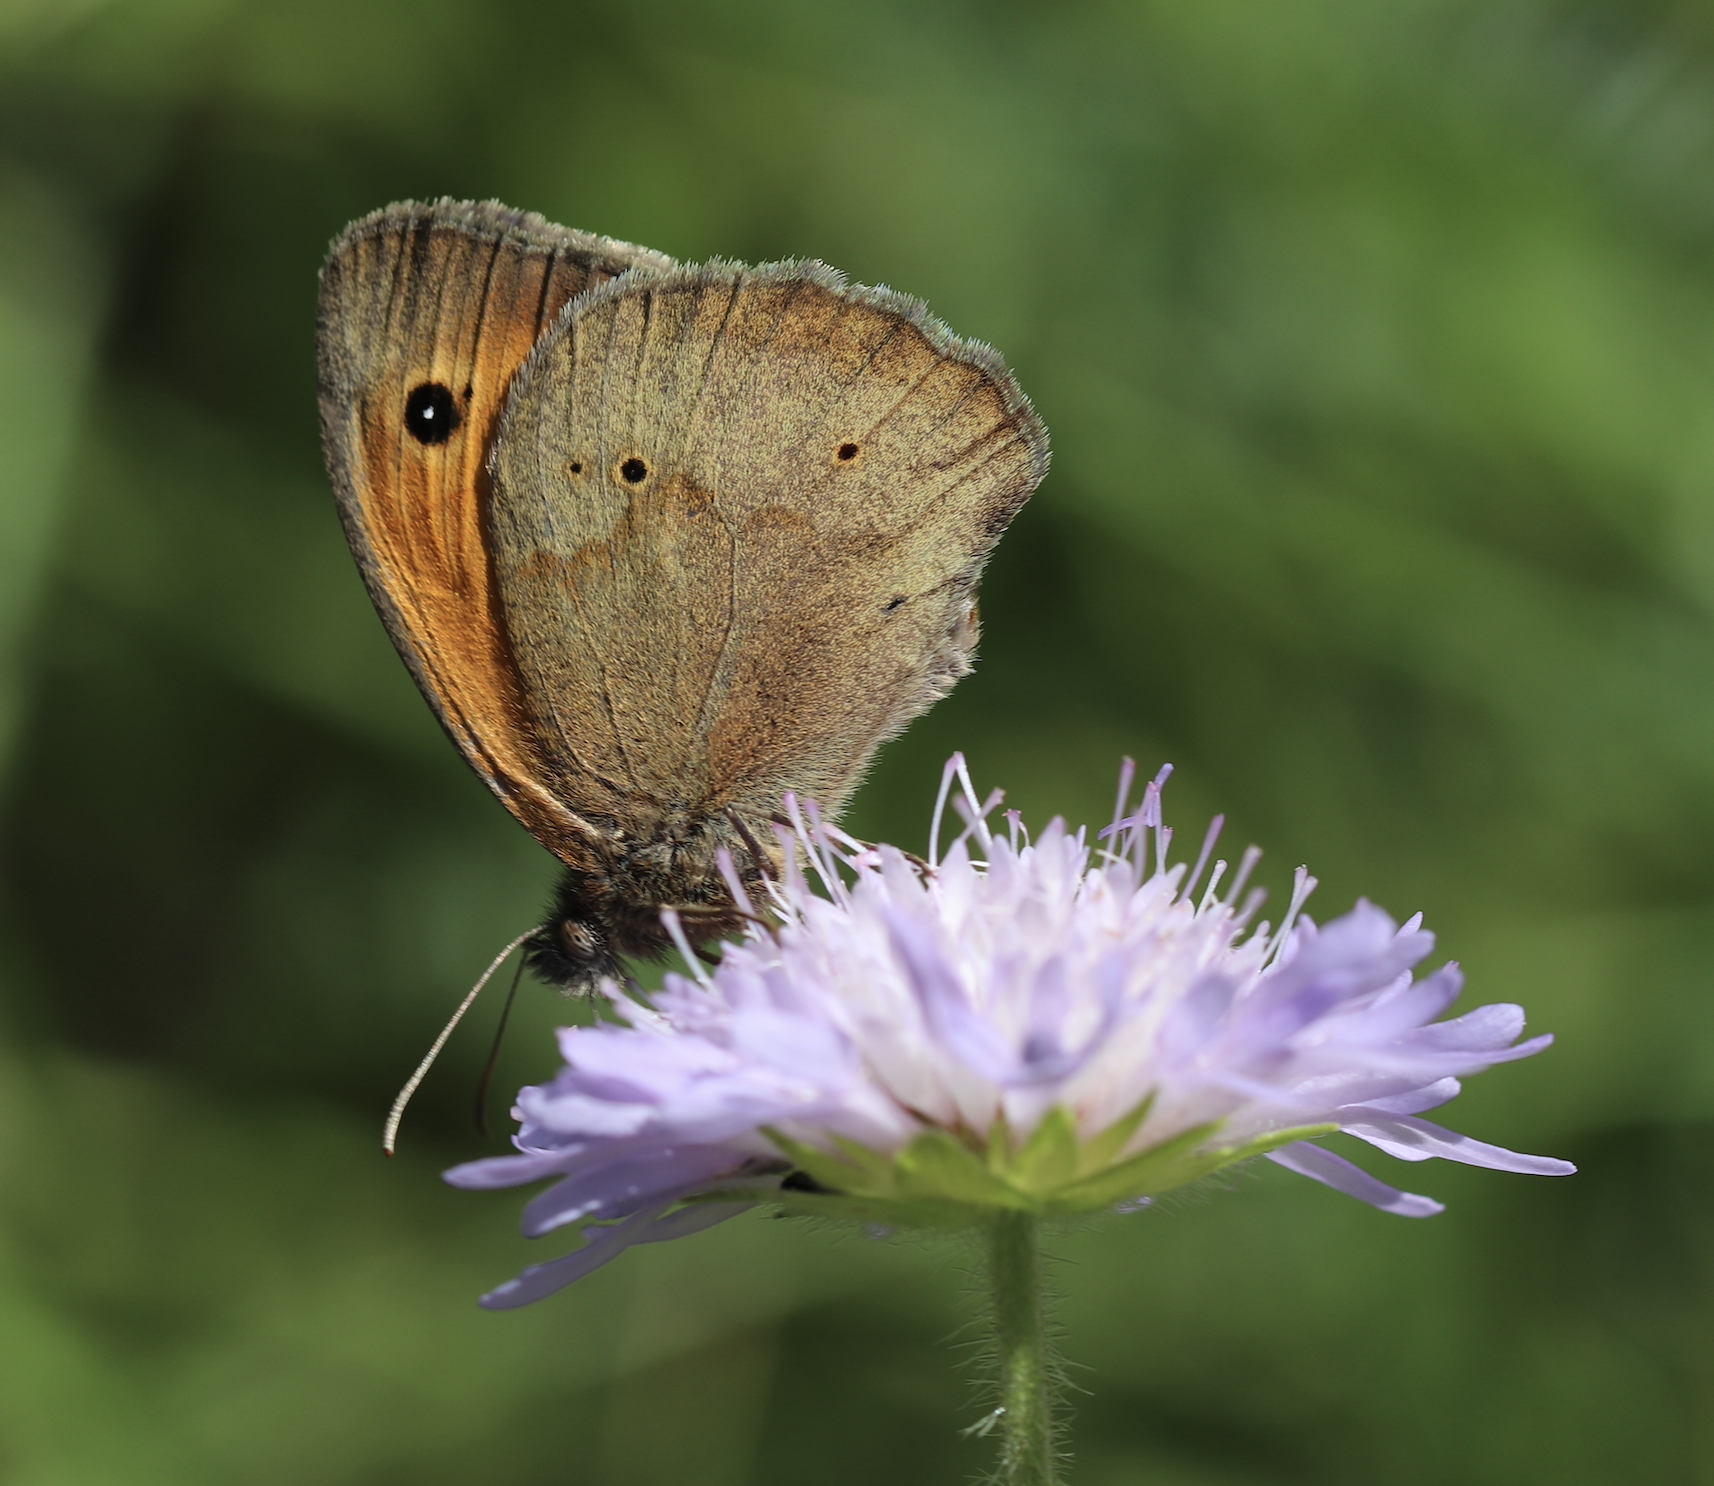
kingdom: Animalia
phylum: Arthropoda
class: Insecta
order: Lepidoptera
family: Nymphalidae
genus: Maniola
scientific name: Maniola jurtina
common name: Meadow brown
